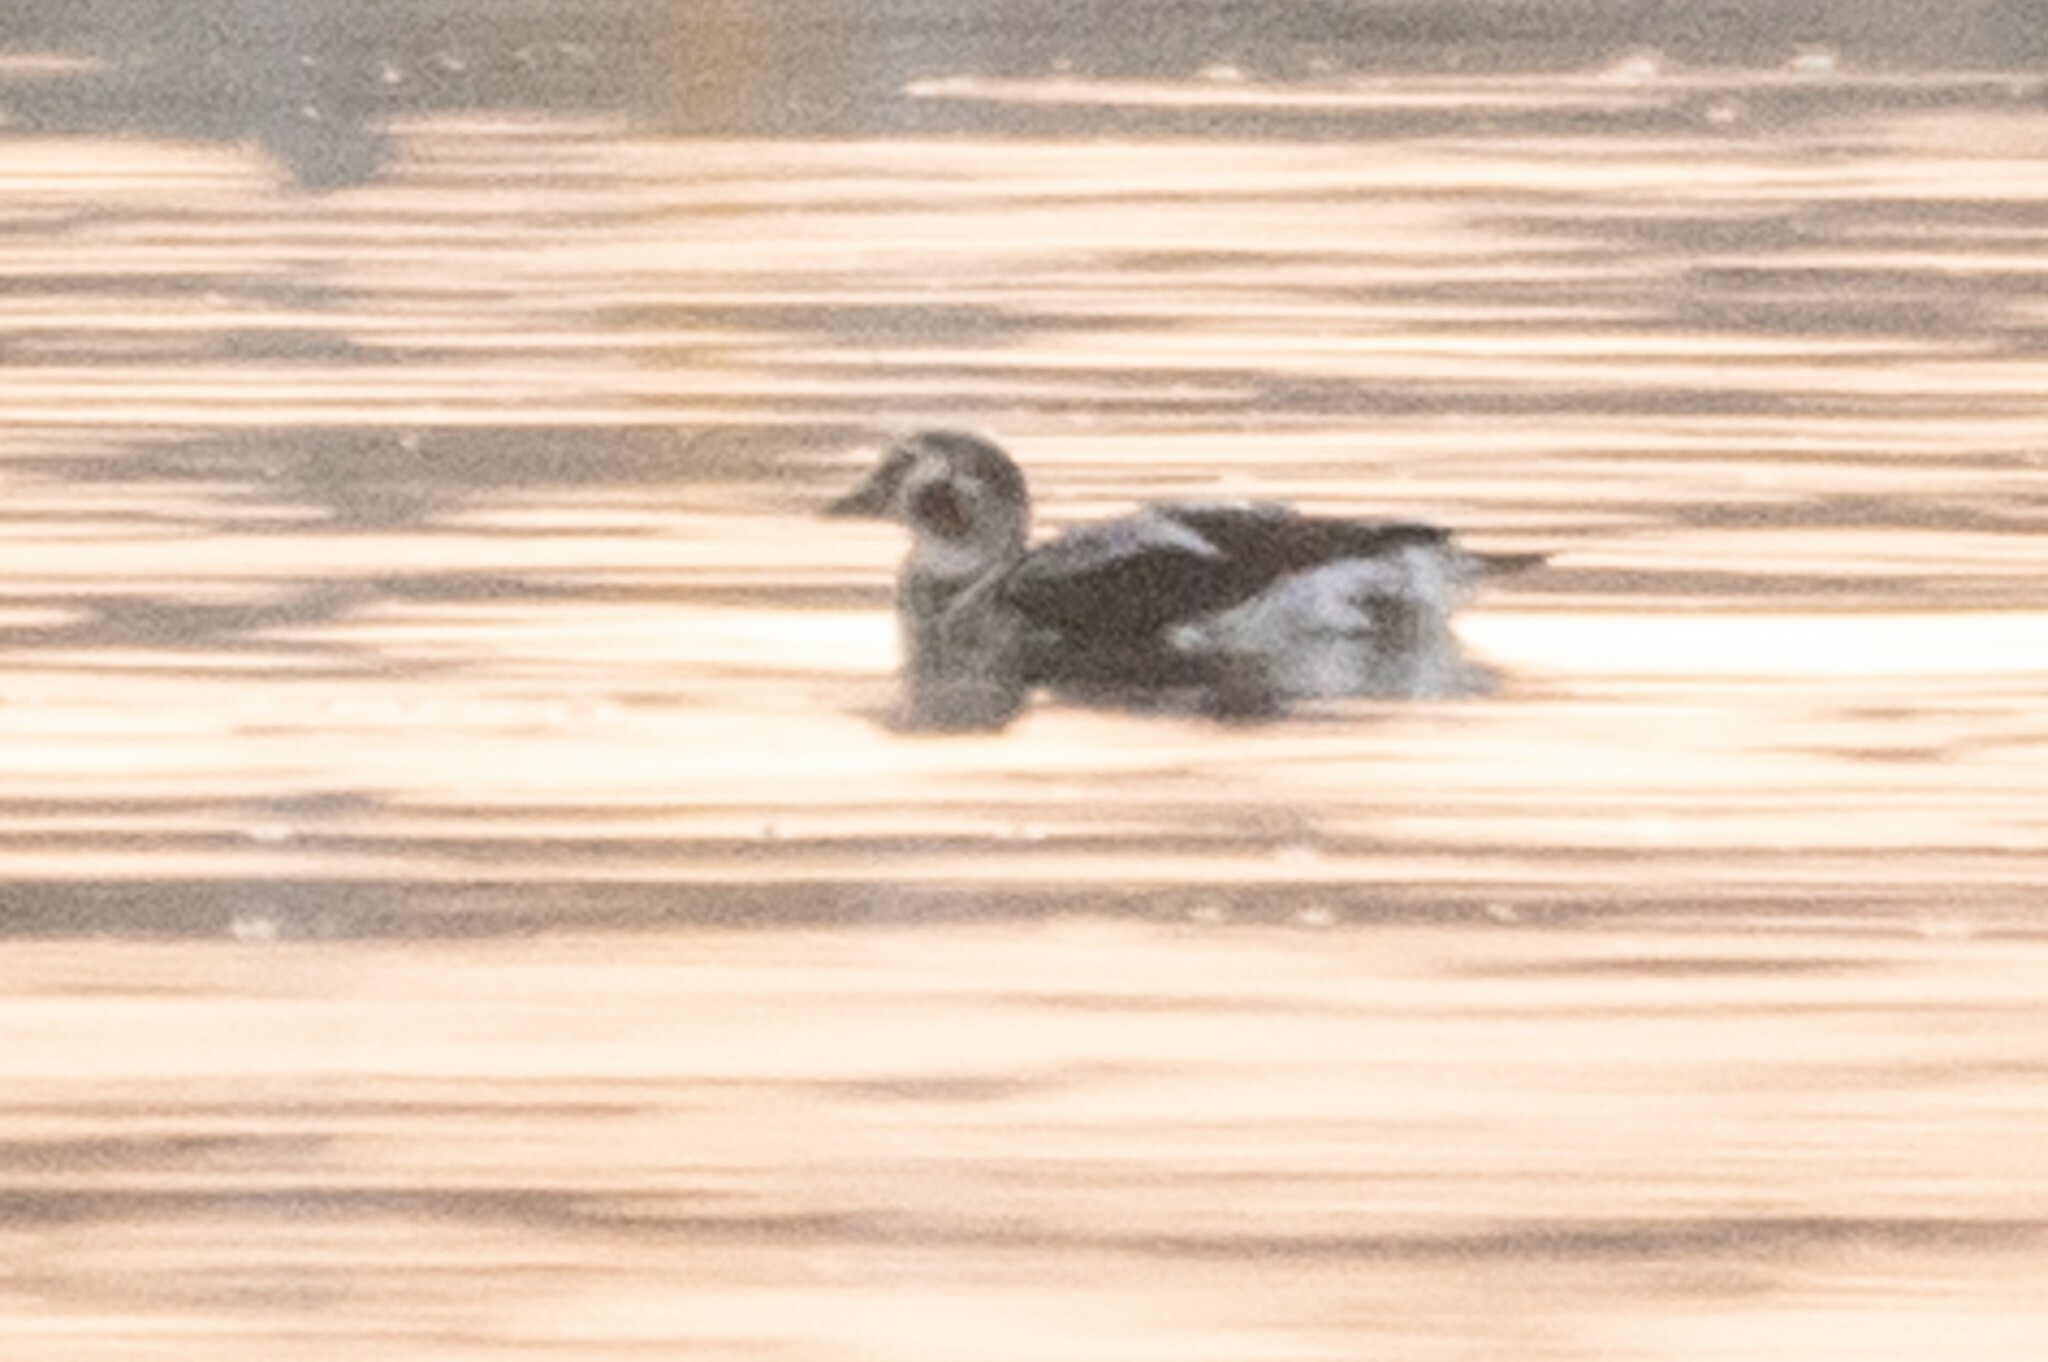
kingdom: Animalia
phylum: Chordata
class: Aves
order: Anseriformes
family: Anatidae
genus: Clangula
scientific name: Clangula hyemalis
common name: Long-tailed duck
